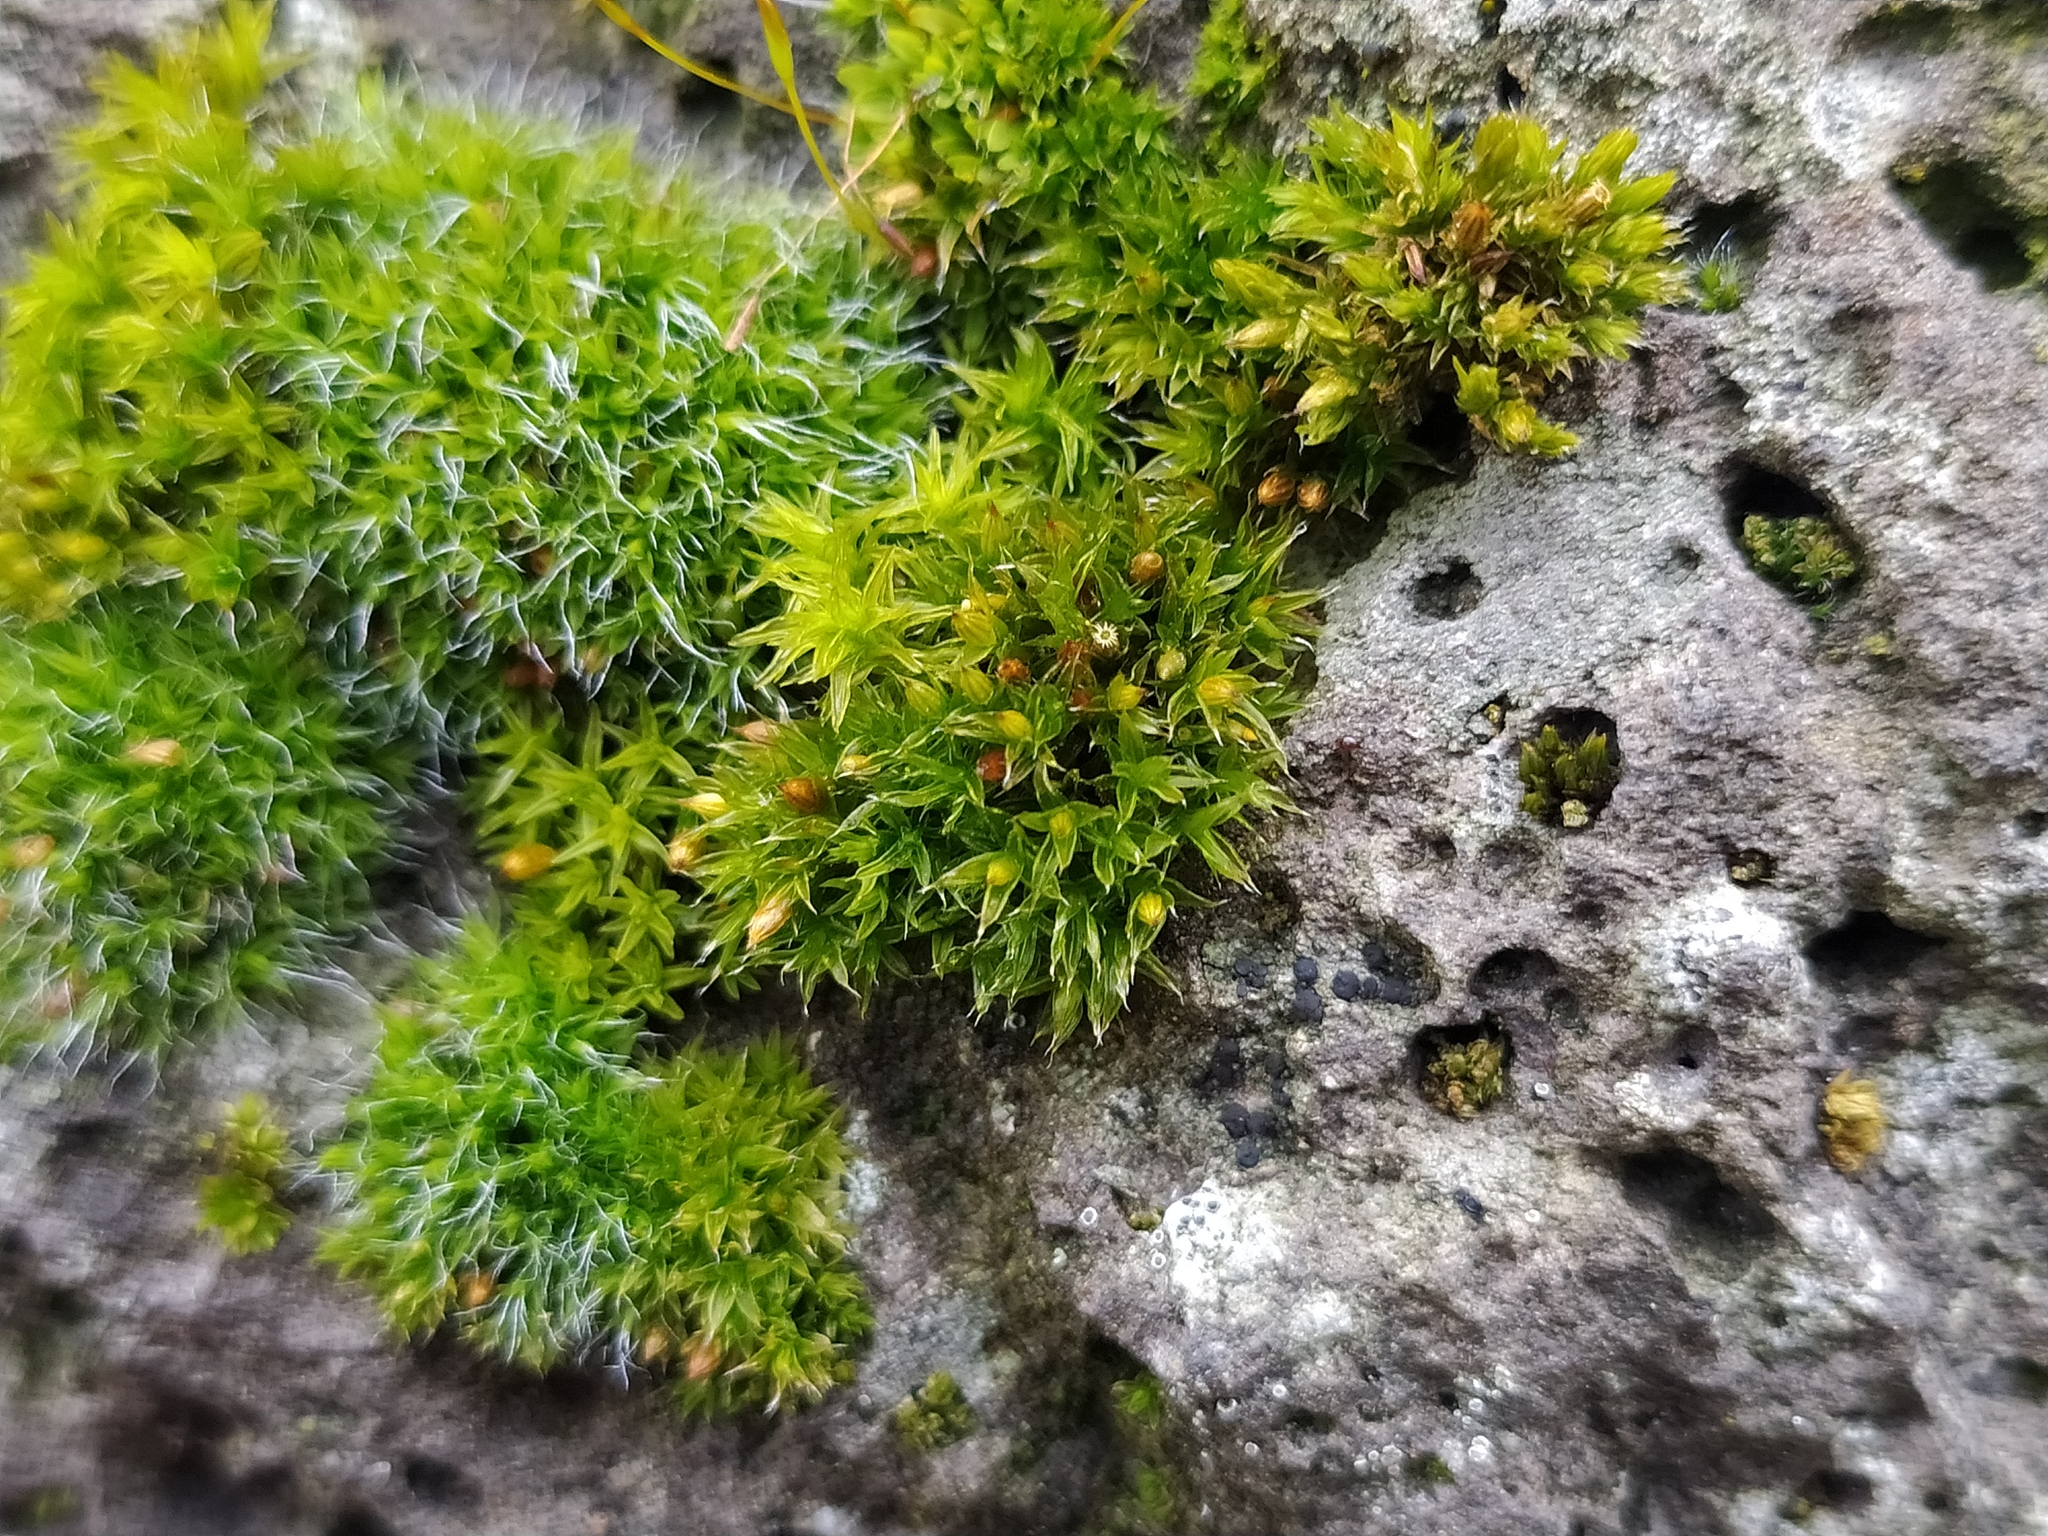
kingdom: Plantae
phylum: Bryophyta
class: Bryopsida
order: Orthotrichales
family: Orthotrichaceae
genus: Orthotrichum
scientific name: Orthotrichum diaphanum
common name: White-tipped bristle-moss
